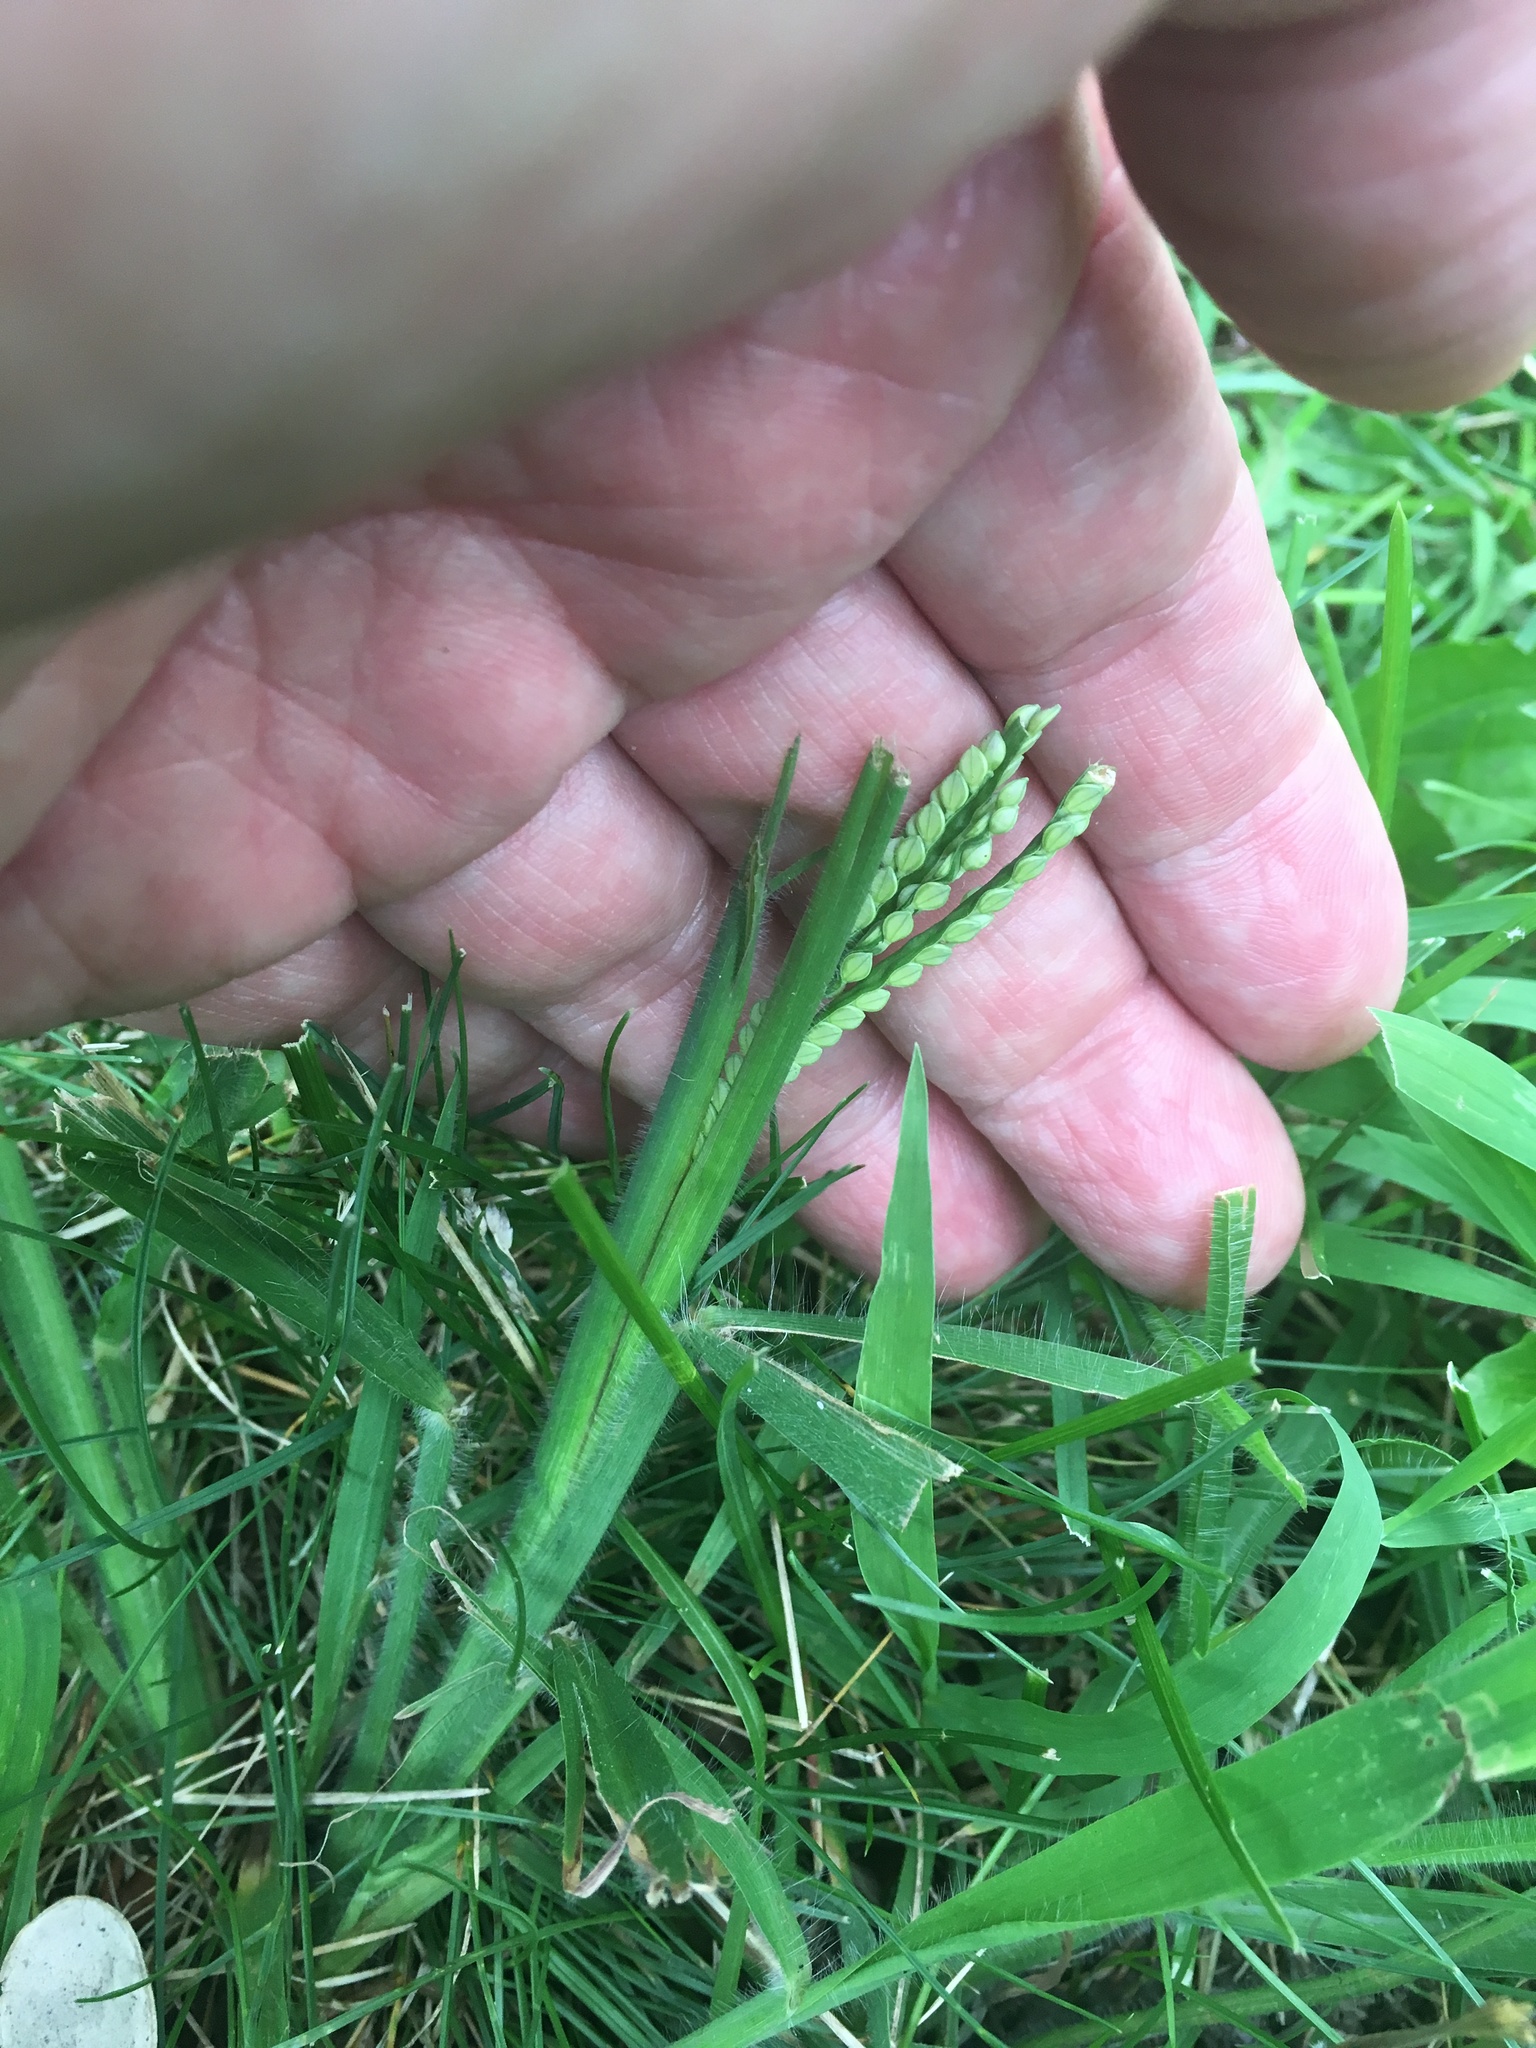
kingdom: Plantae
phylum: Tracheophyta
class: Liliopsida
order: Poales
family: Poaceae
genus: Paspalum
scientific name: Paspalum laeve
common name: Field paspalum
